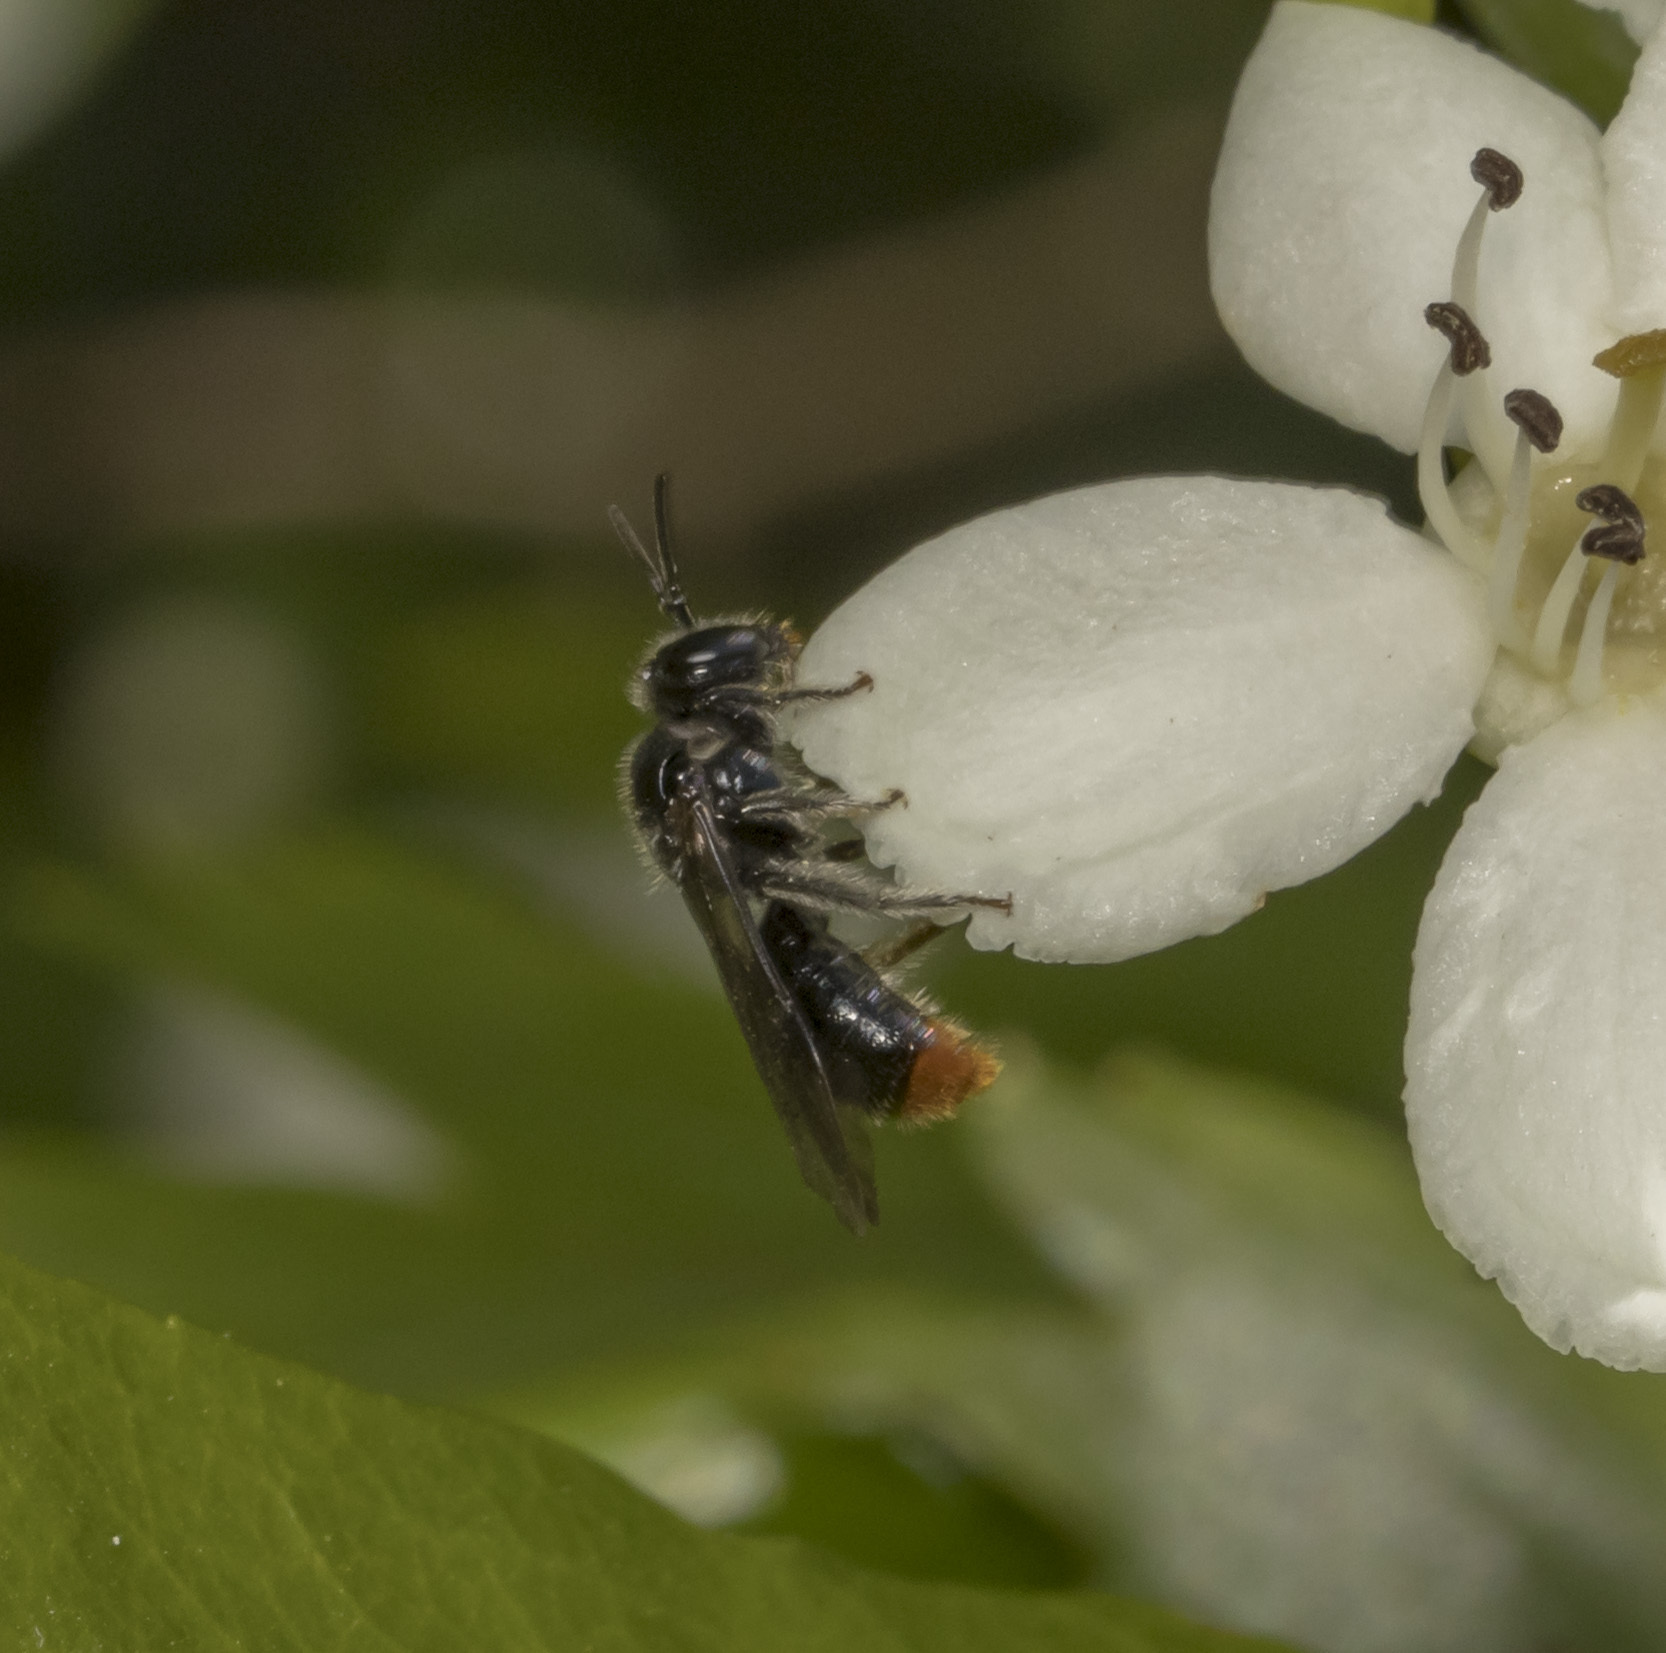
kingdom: Animalia
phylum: Arthropoda
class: Insecta
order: Hymenoptera
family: Apidae
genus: Manuelia
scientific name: Manuelia postica
